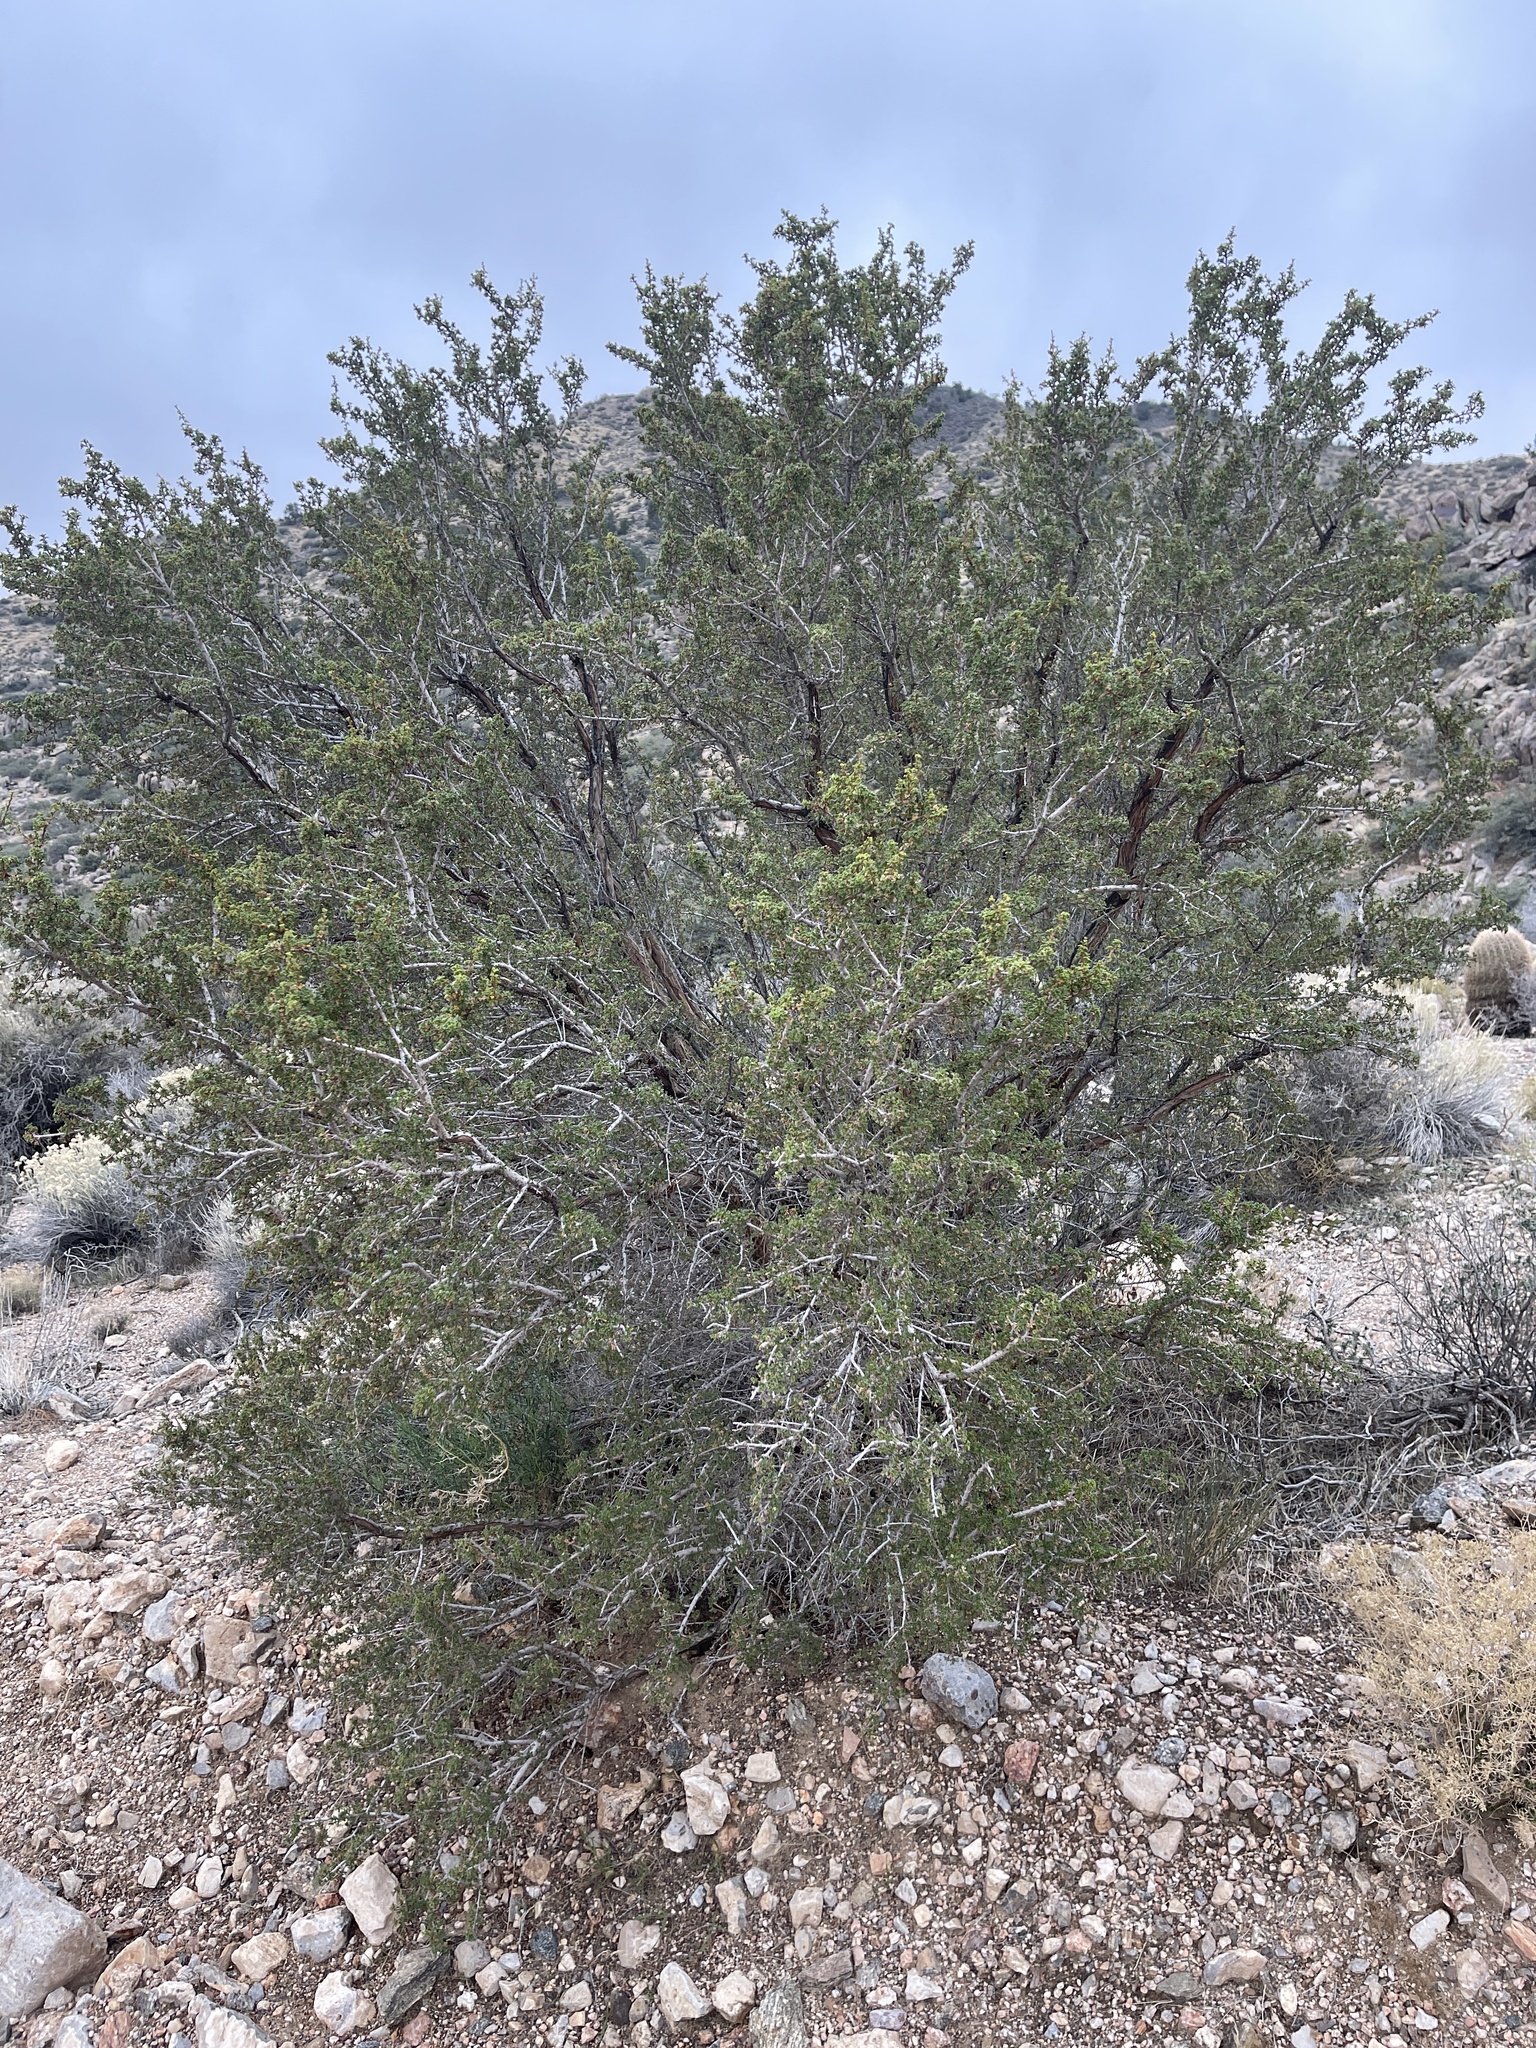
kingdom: Plantae
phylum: Tracheophyta
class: Magnoliopsida
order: Rosales
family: Rosaceae
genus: Purshia
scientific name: Purshia stansburiana
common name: Stansbury's cliffrose
